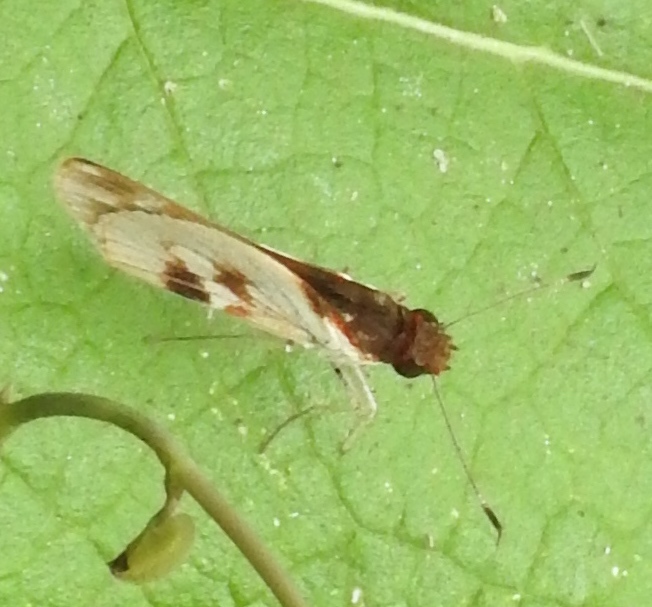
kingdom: Animalia
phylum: Arthropoda
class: Insecta
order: Lepidoptera
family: Hesperiidae
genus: Troyus
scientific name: Troyus fantasos
